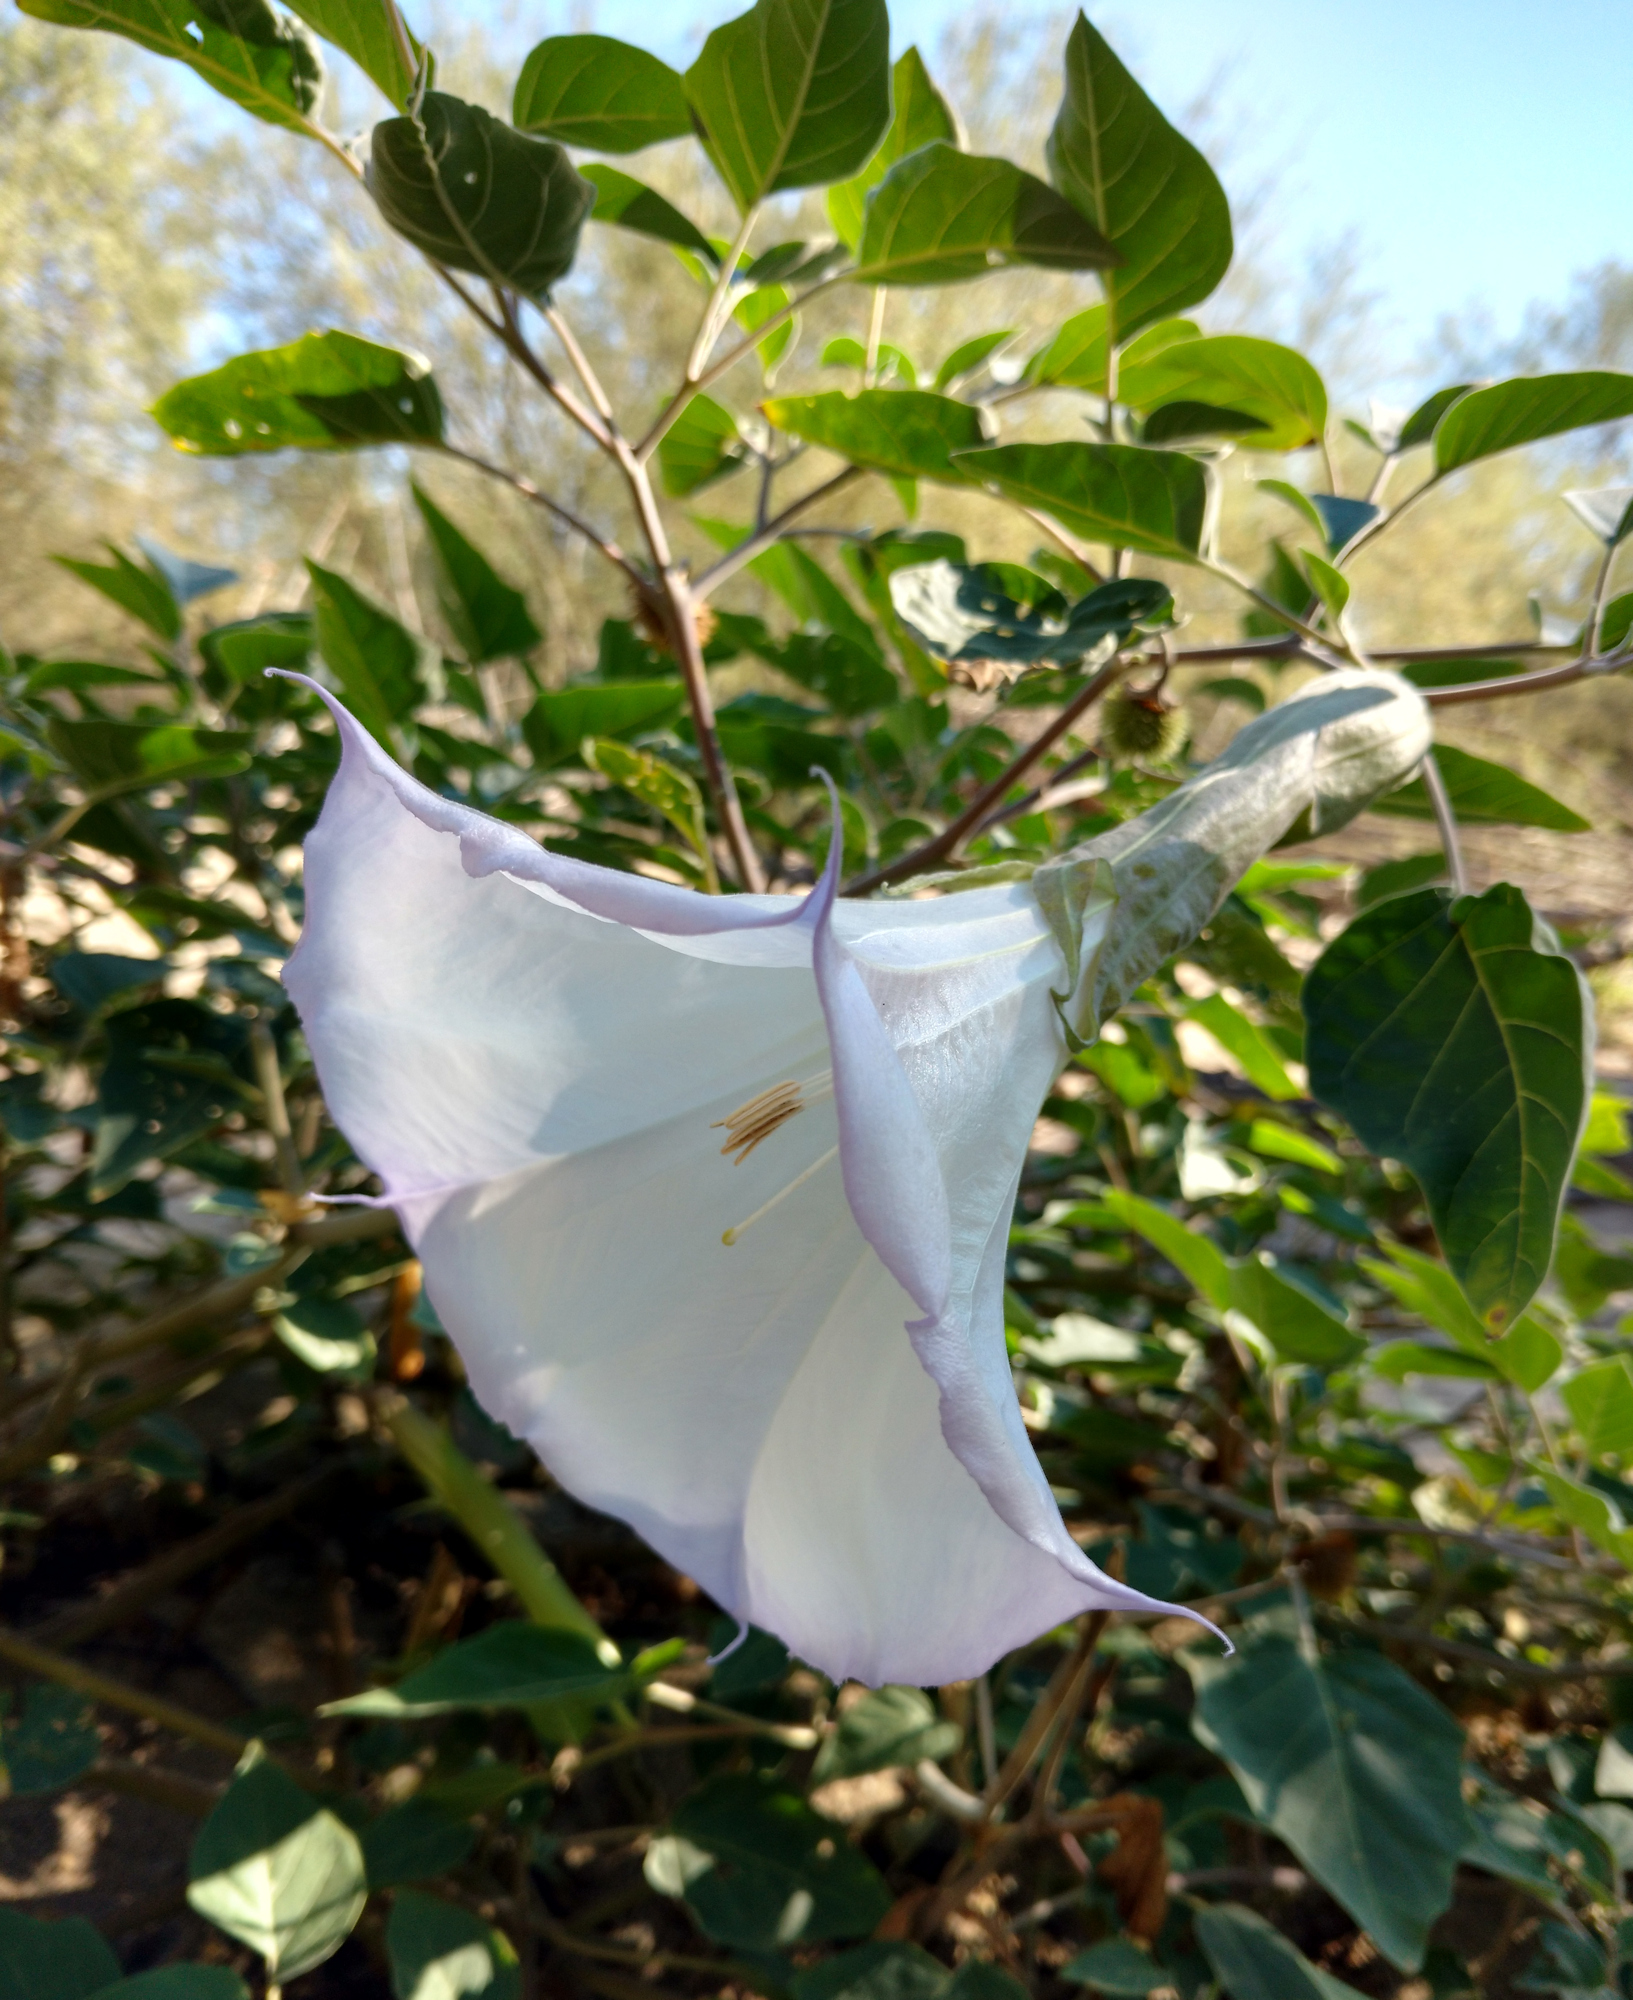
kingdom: Plantae
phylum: Tracheophyta
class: Magnoliopsida
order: Solanales
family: Solanaceae
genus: Datura
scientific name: Datura wrightii
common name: Sacred thorn-apple
